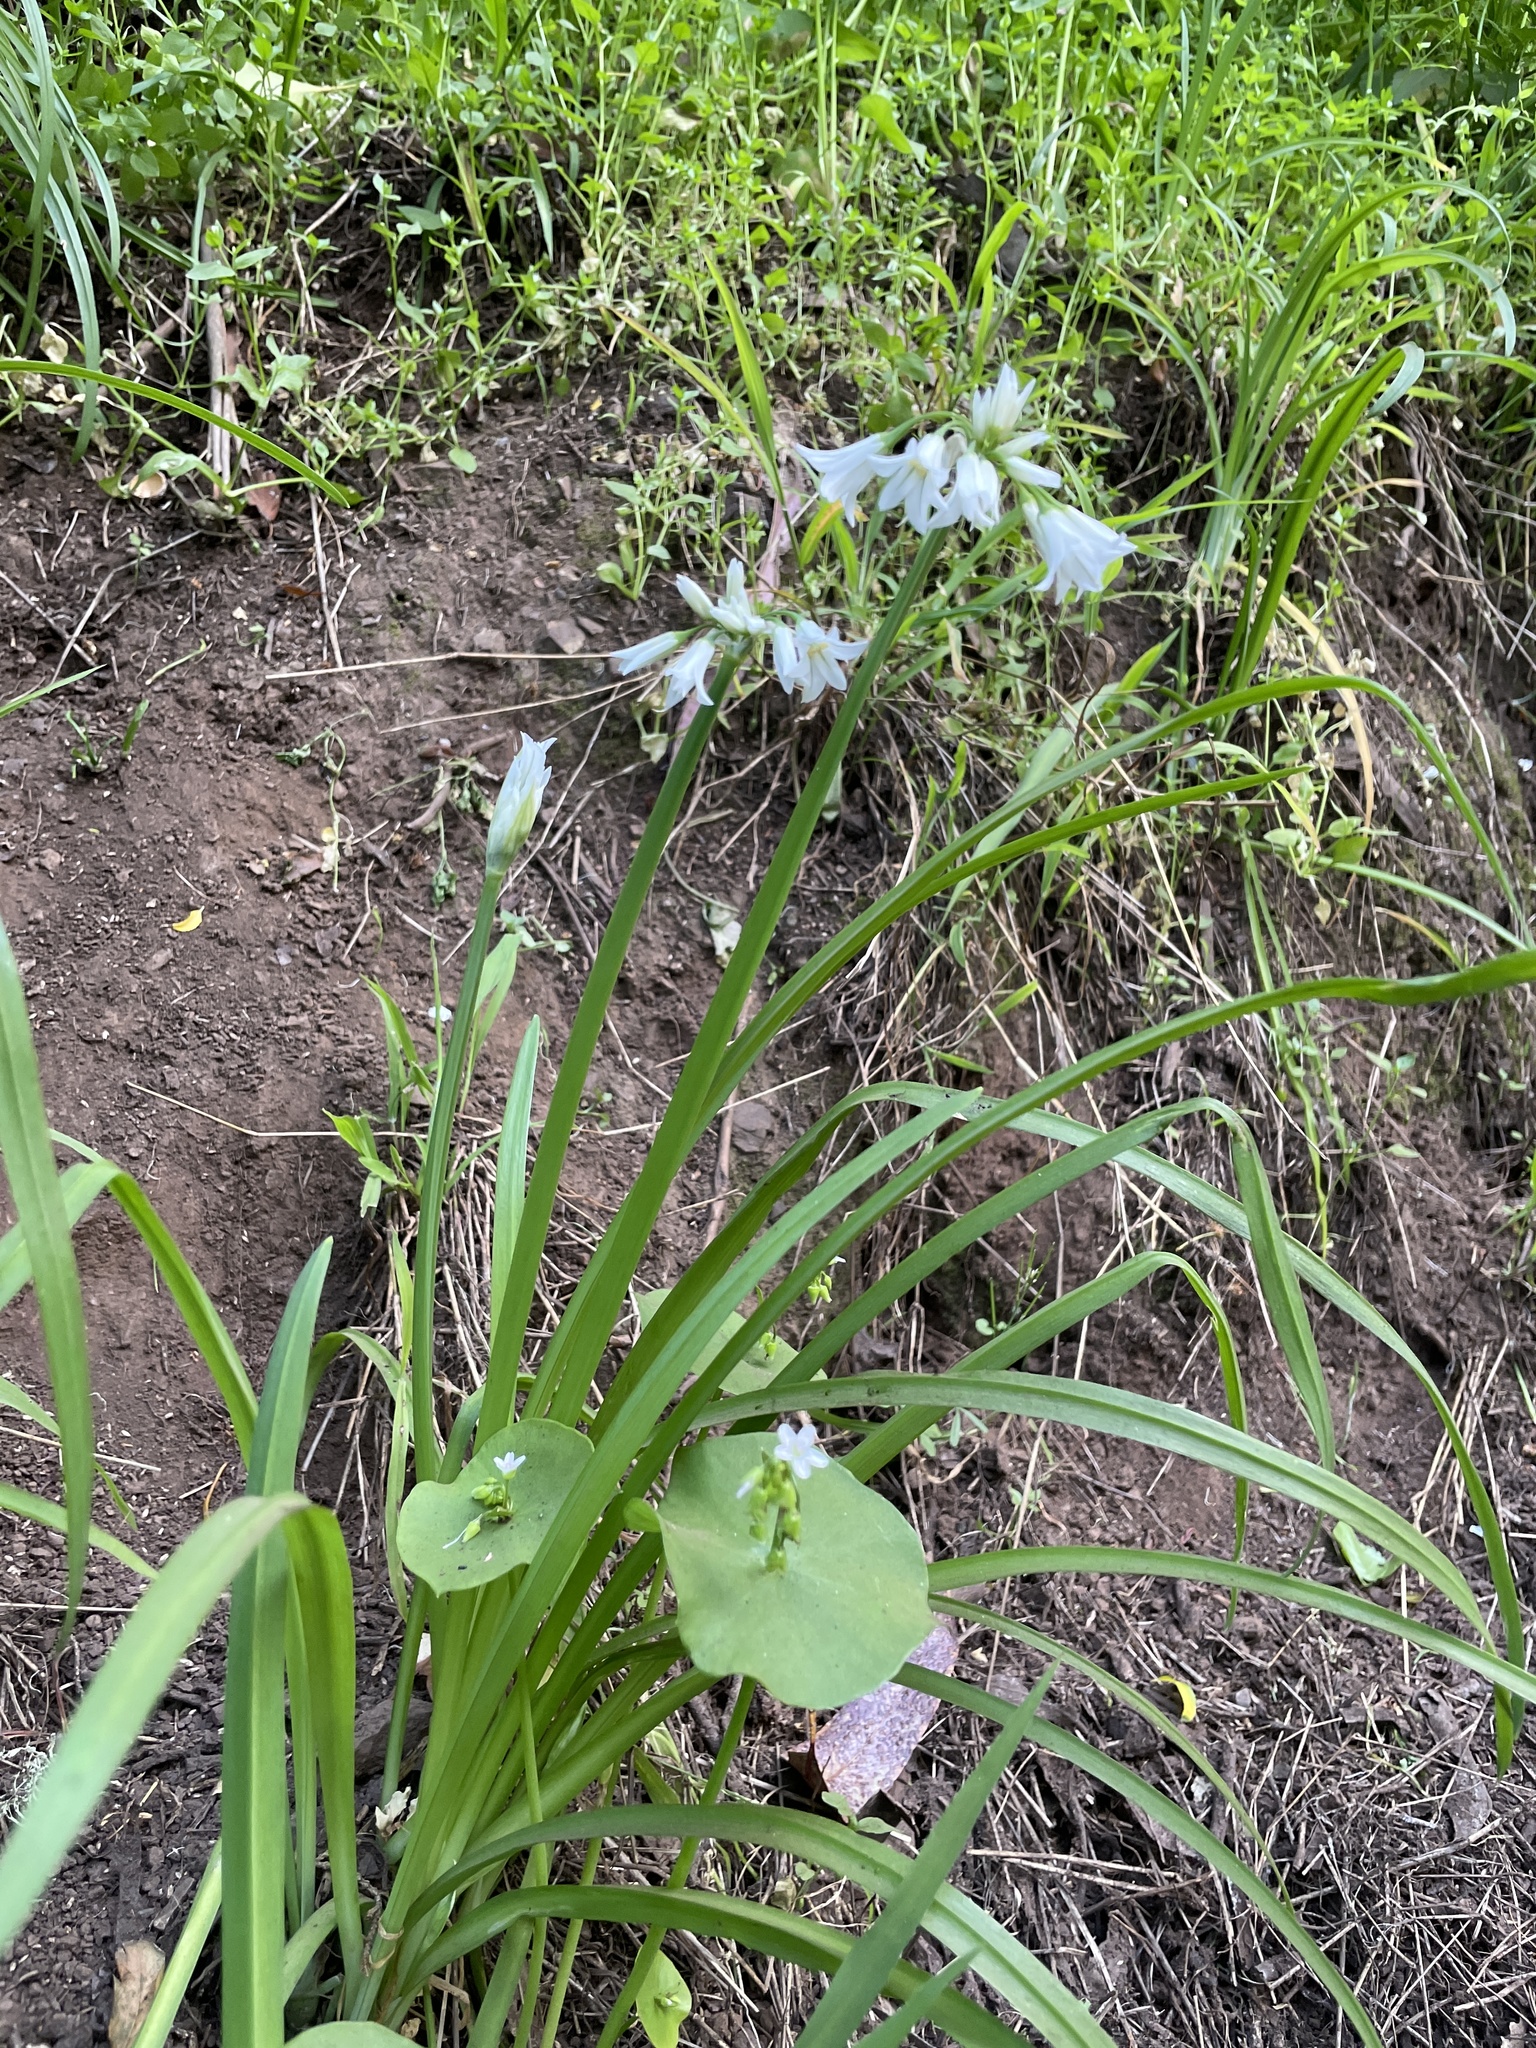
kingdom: Plantae
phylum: Tracheophyta
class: Liliopsida
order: Asparagales
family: Amaryllidaceae
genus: Allium
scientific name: Allium triquetrum
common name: Three-cornered garlic
